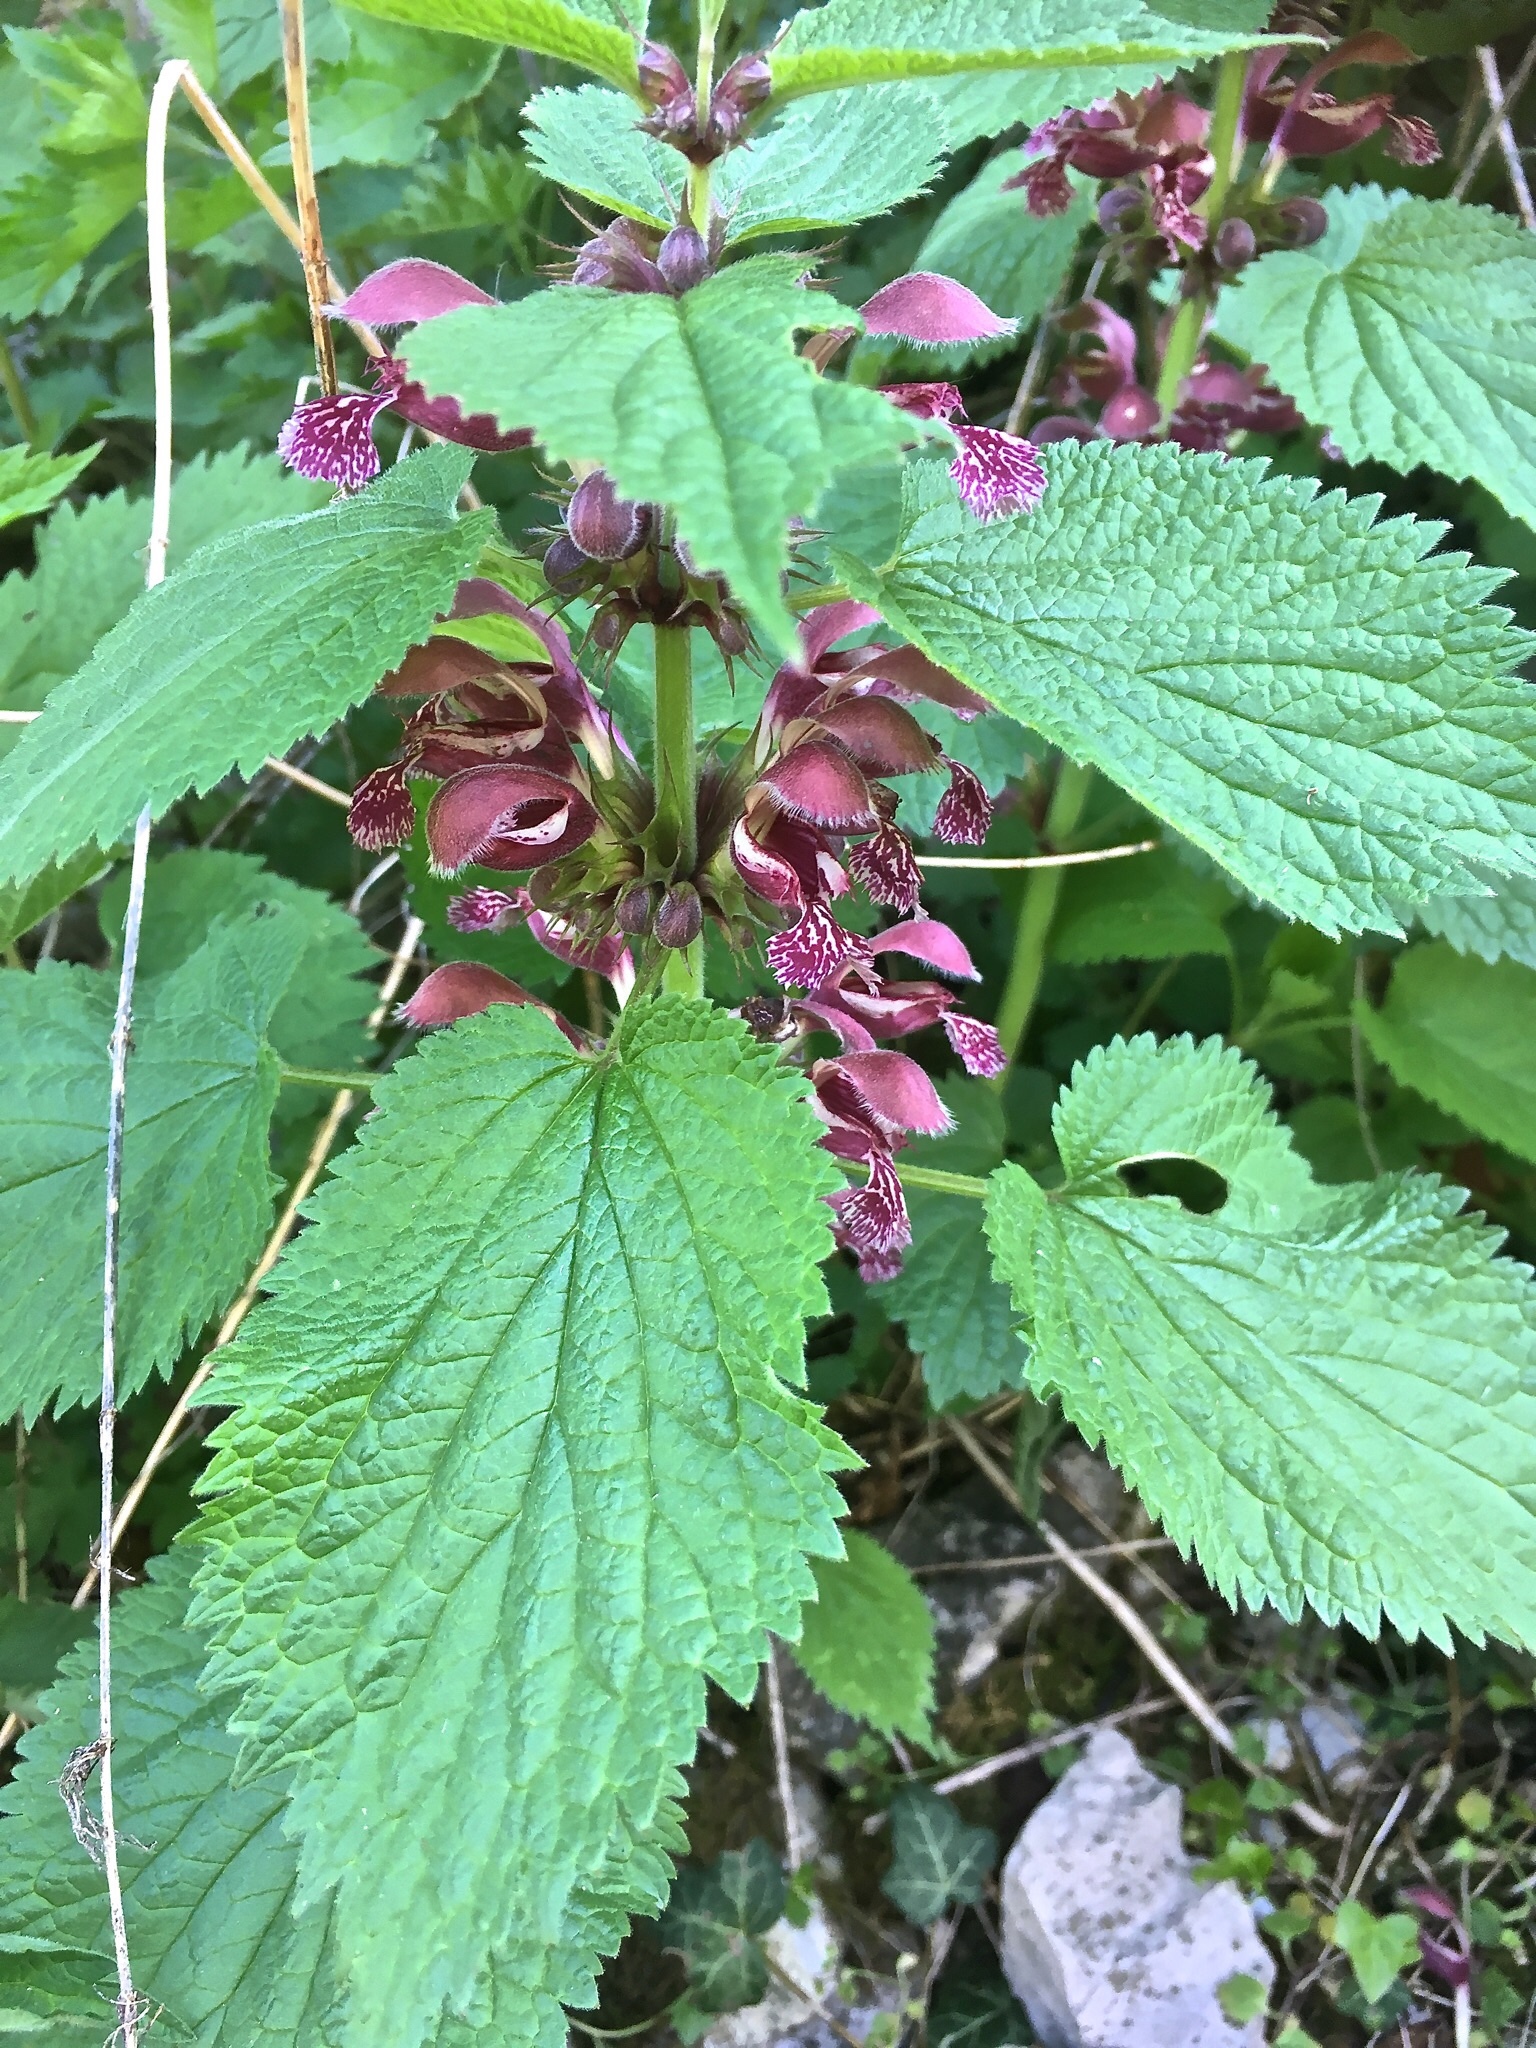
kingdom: Plantae
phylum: Tracheophyta
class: Magnoliopsida
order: Lamiales
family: Lamiaceae
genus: Lamium
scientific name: Lamium orvala
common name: Balm-leaved archangel
